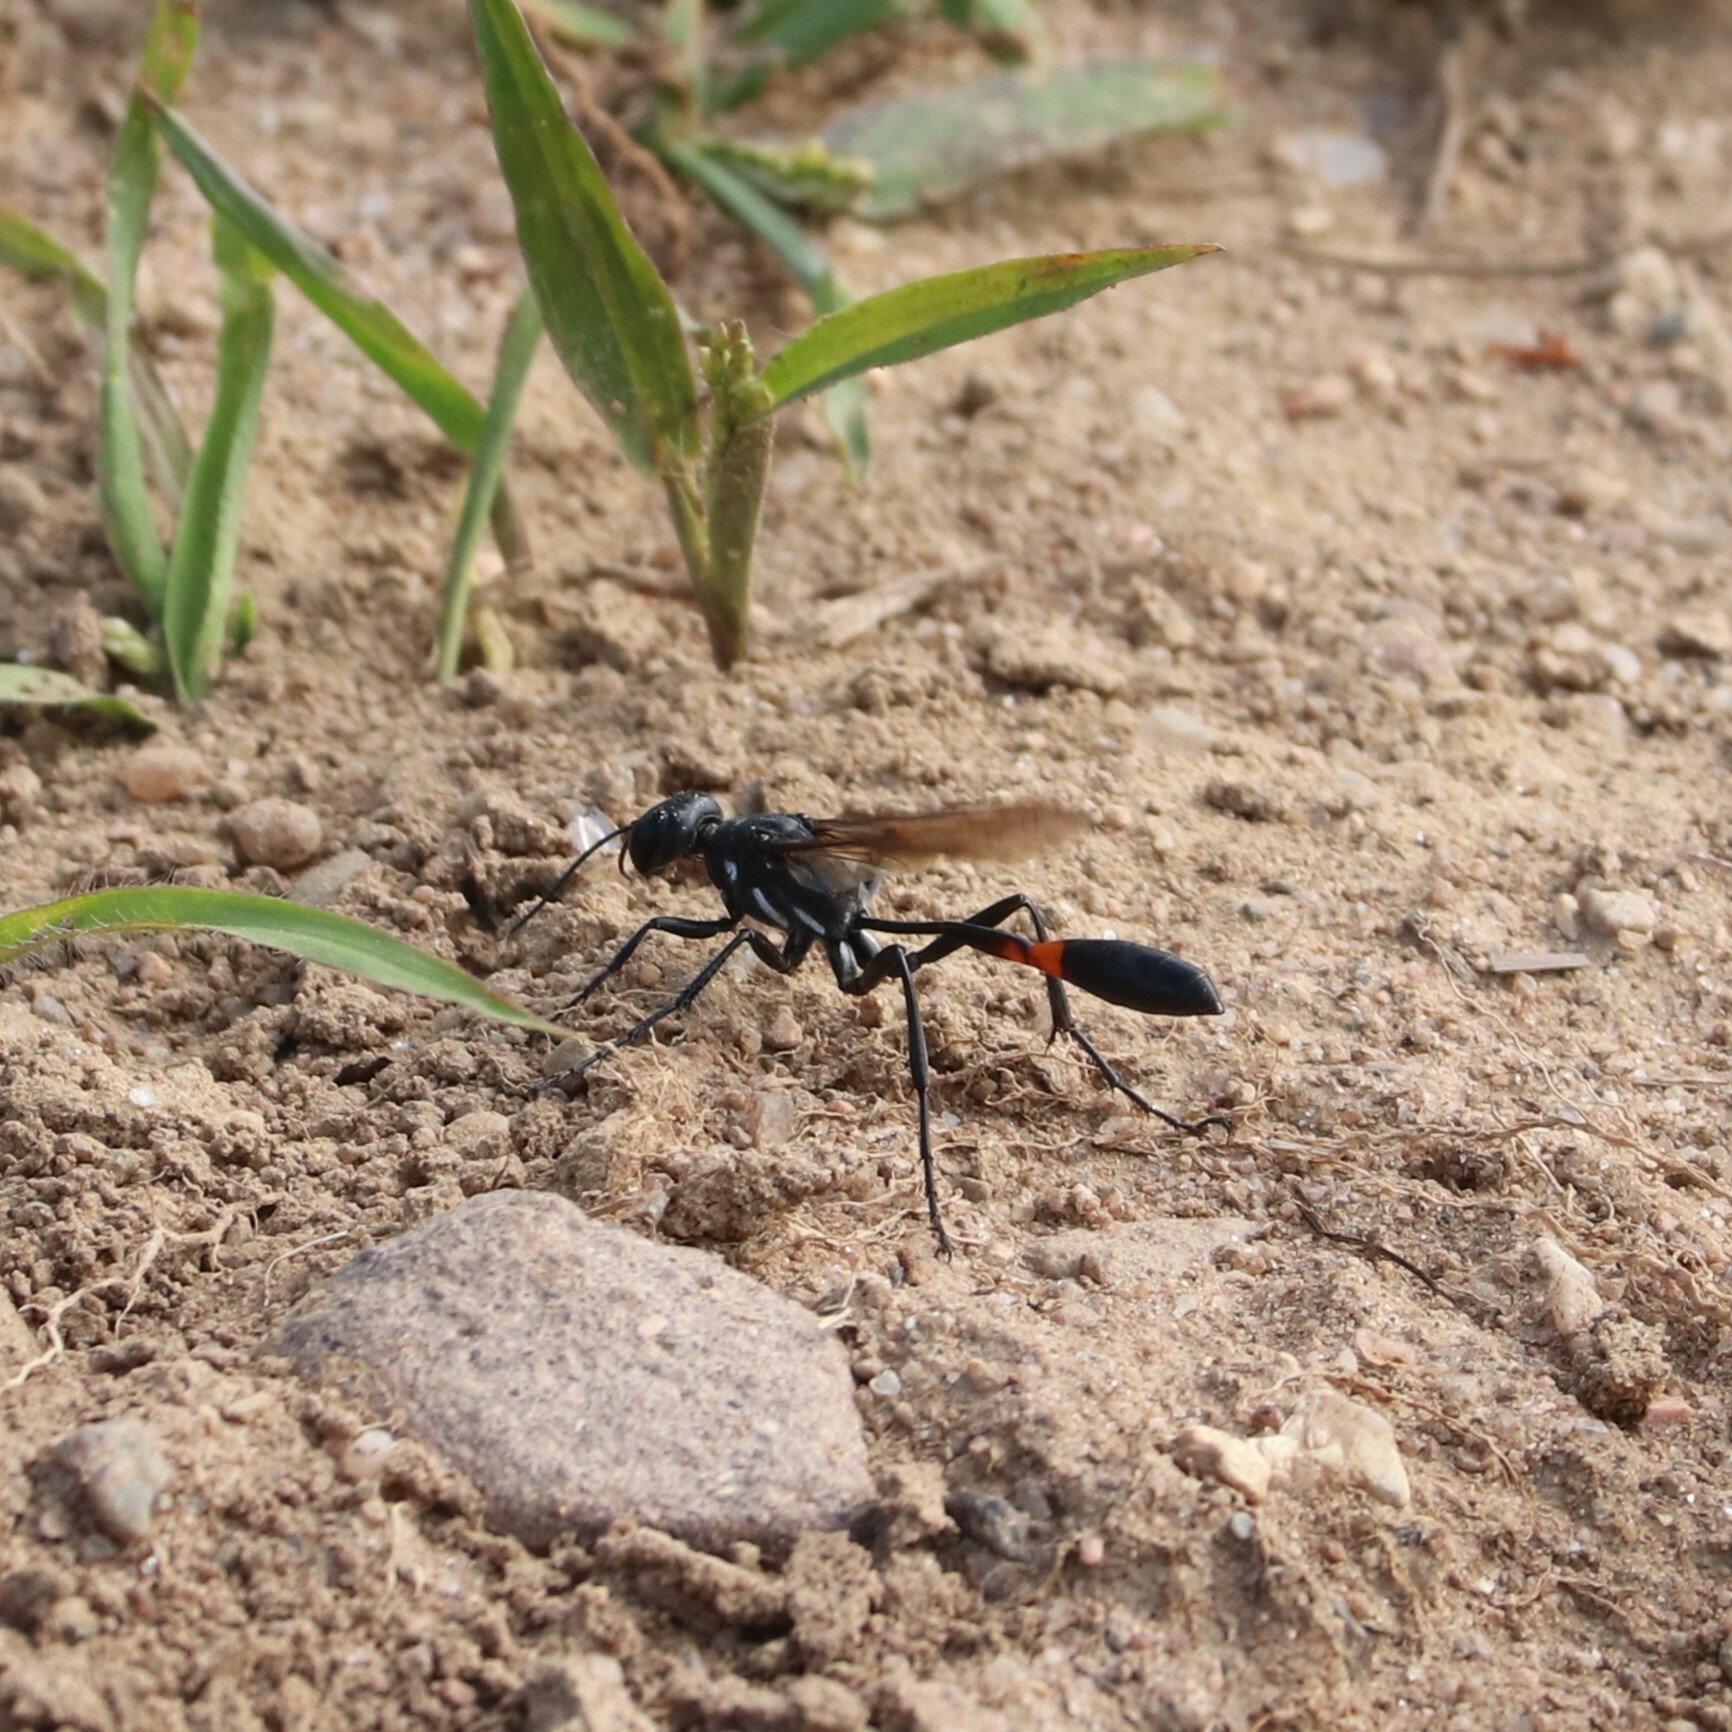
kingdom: Animalia
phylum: Arthropoda
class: Insecta
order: Hymenoptera
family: Sphecidae
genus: Ammophila
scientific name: Ammophila procera
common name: Common thread-waisted wasp
